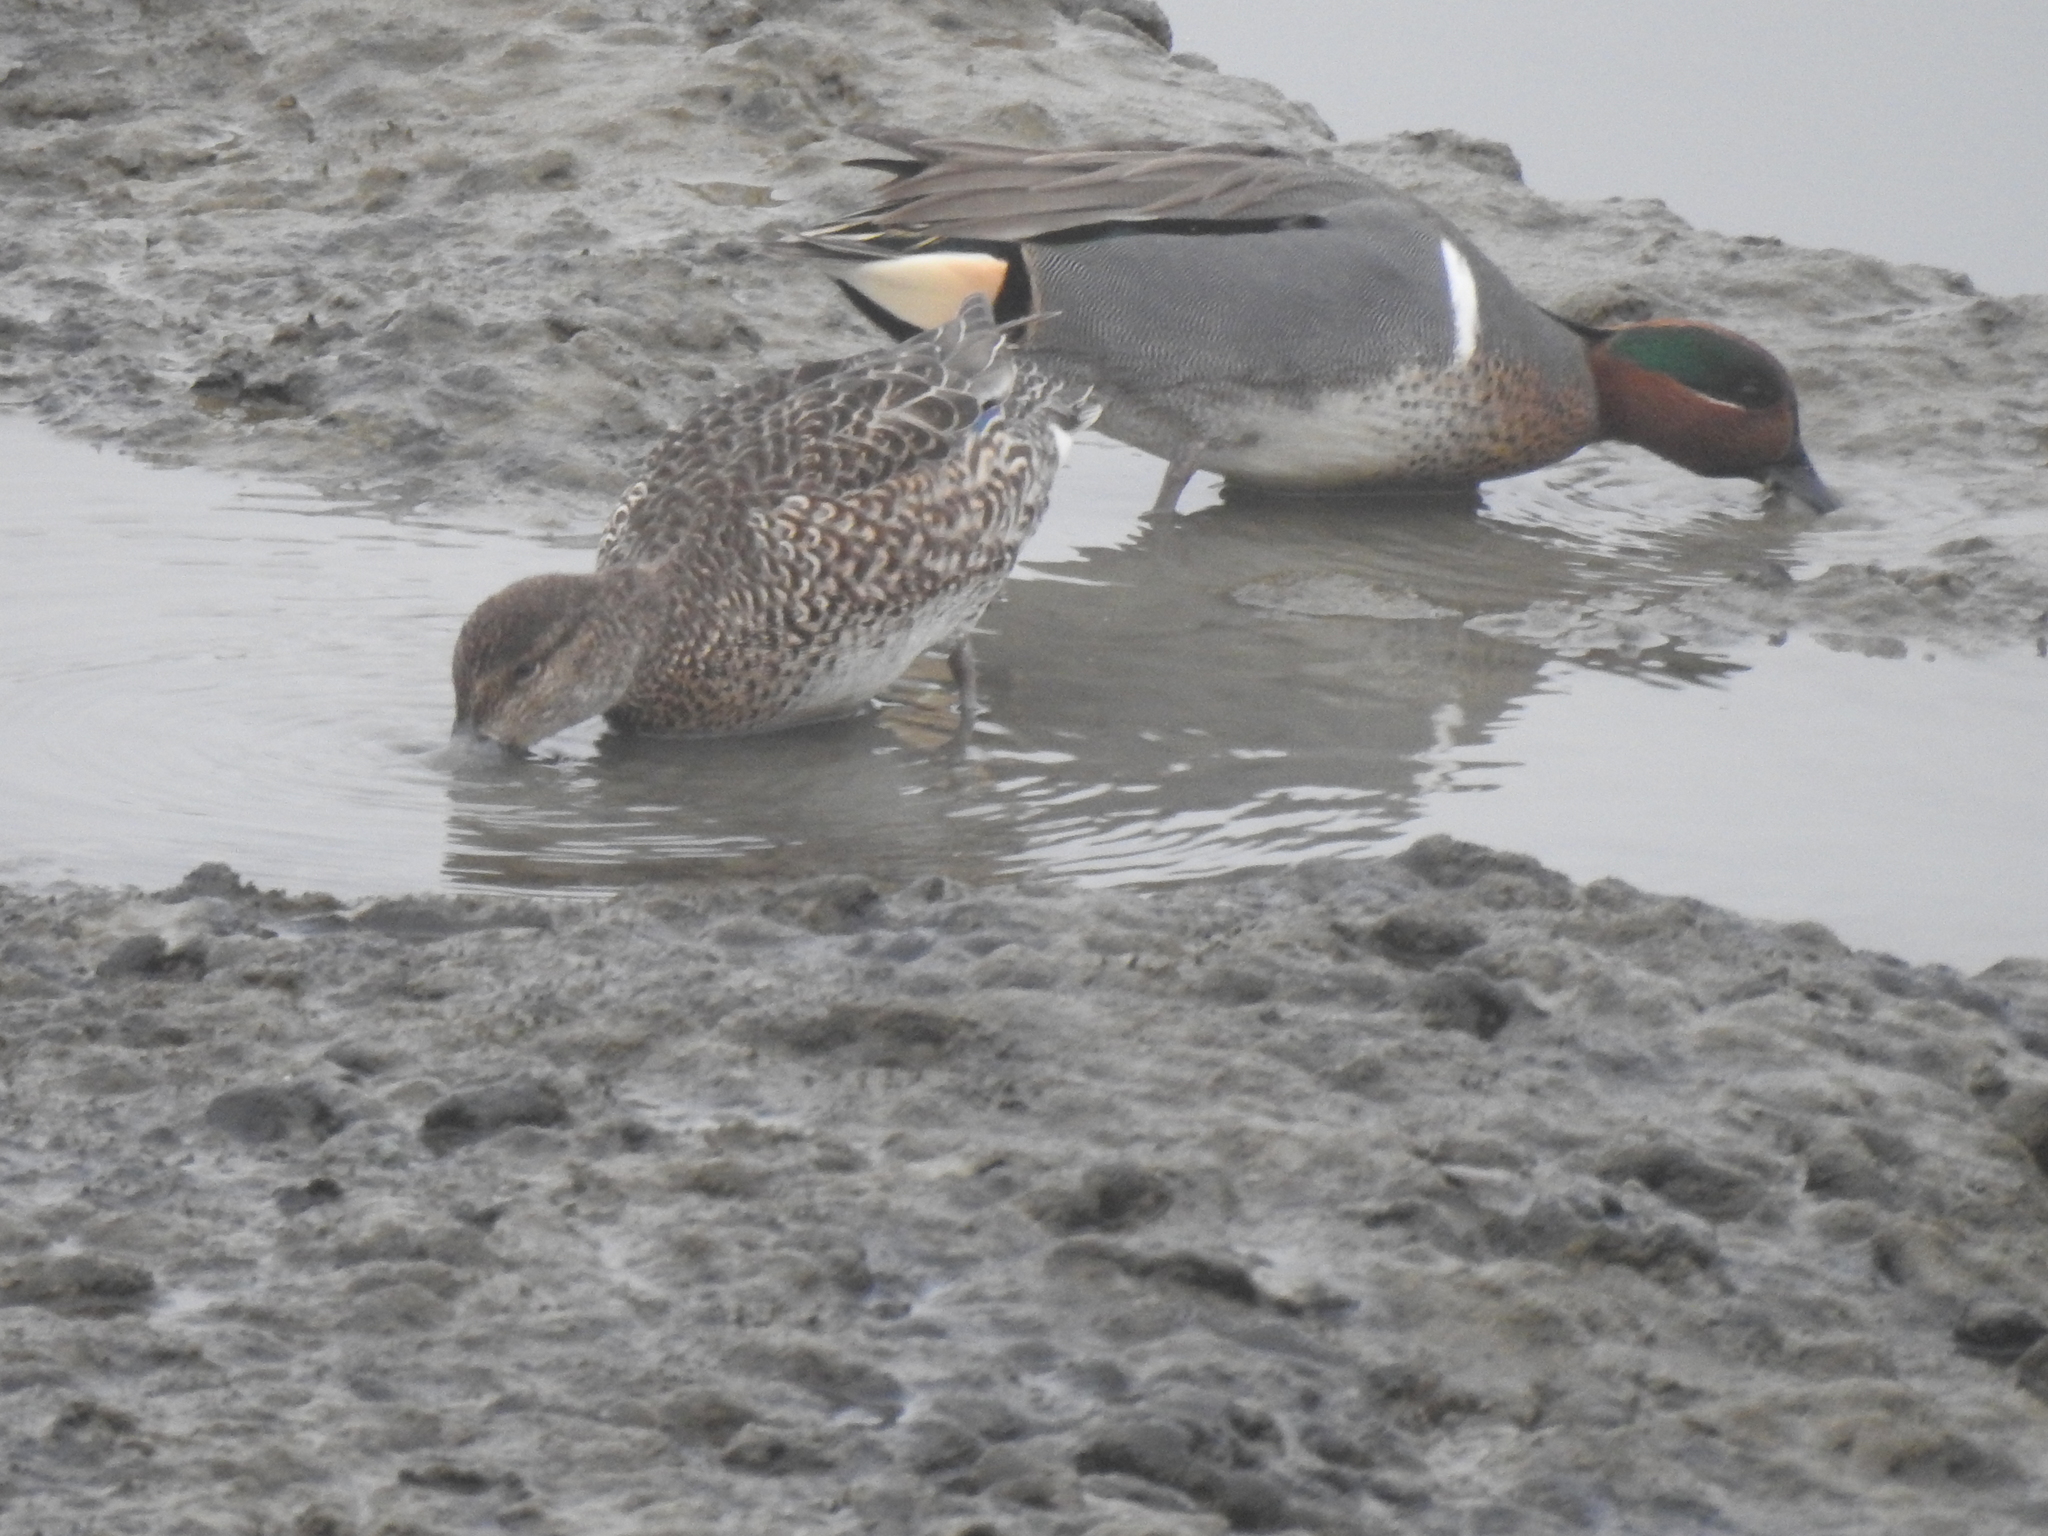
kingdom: Animalia
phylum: Chordata
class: Aves
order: Anseriformes
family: Anatidae
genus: Anas
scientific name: Anas crecca
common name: Eurasian teal
